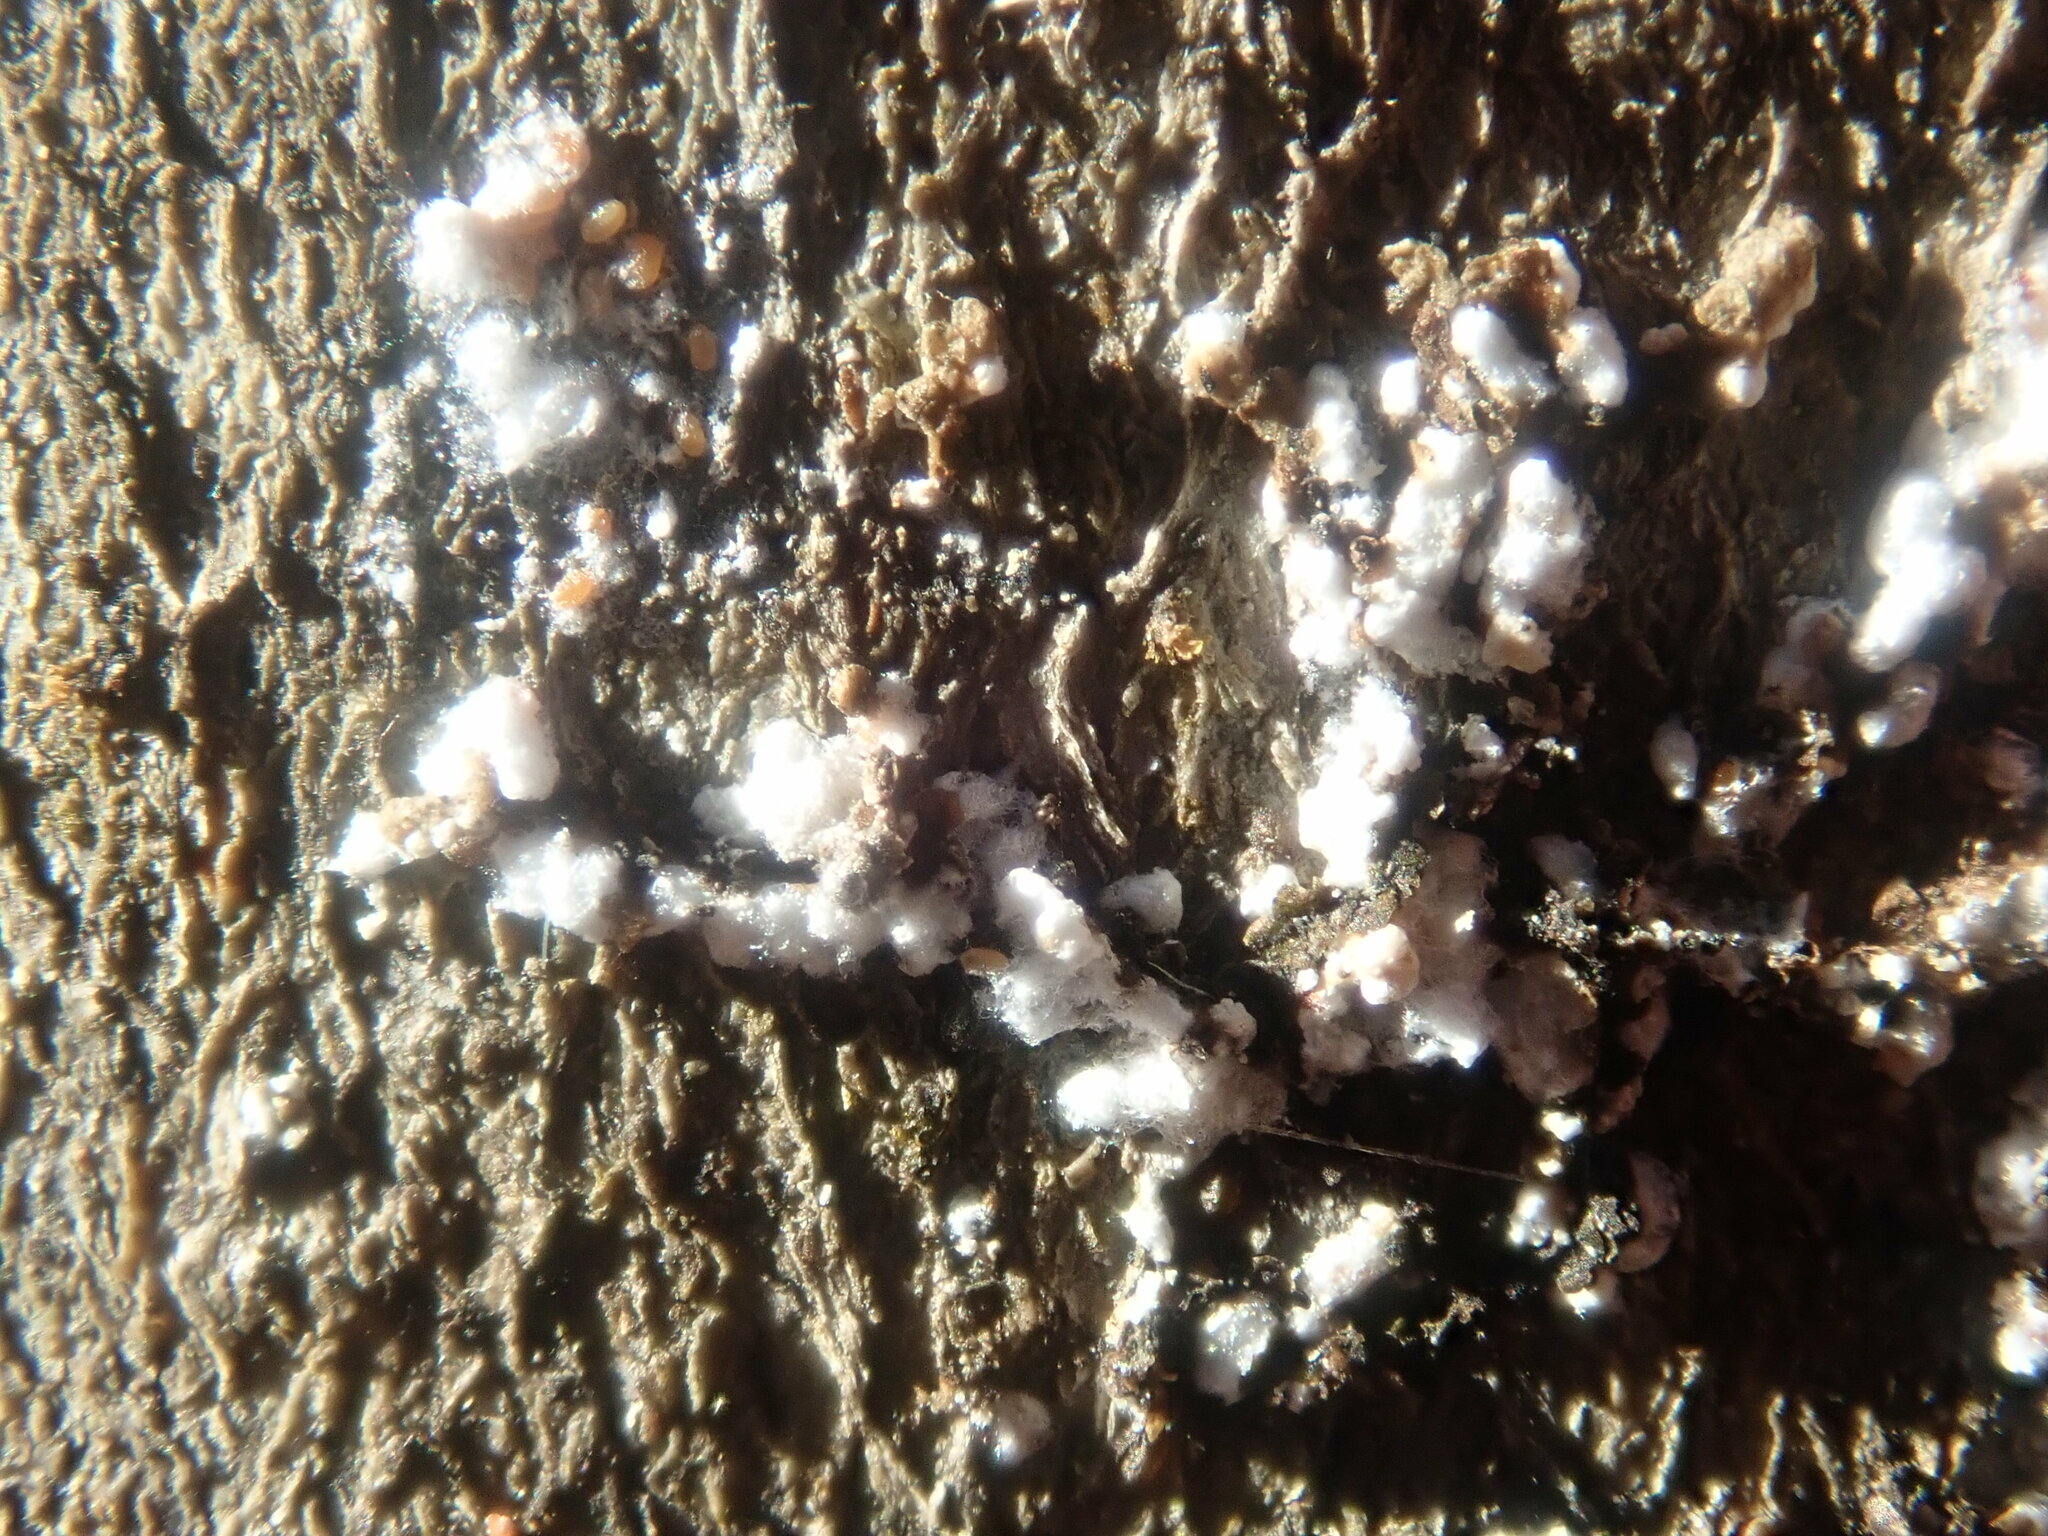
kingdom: Animalia
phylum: Arthropoda
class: Insecta
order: Hemiptera
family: Eriococcidae
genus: Cryptococcus
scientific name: Cryptococcus fagisuga
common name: Beech scale
